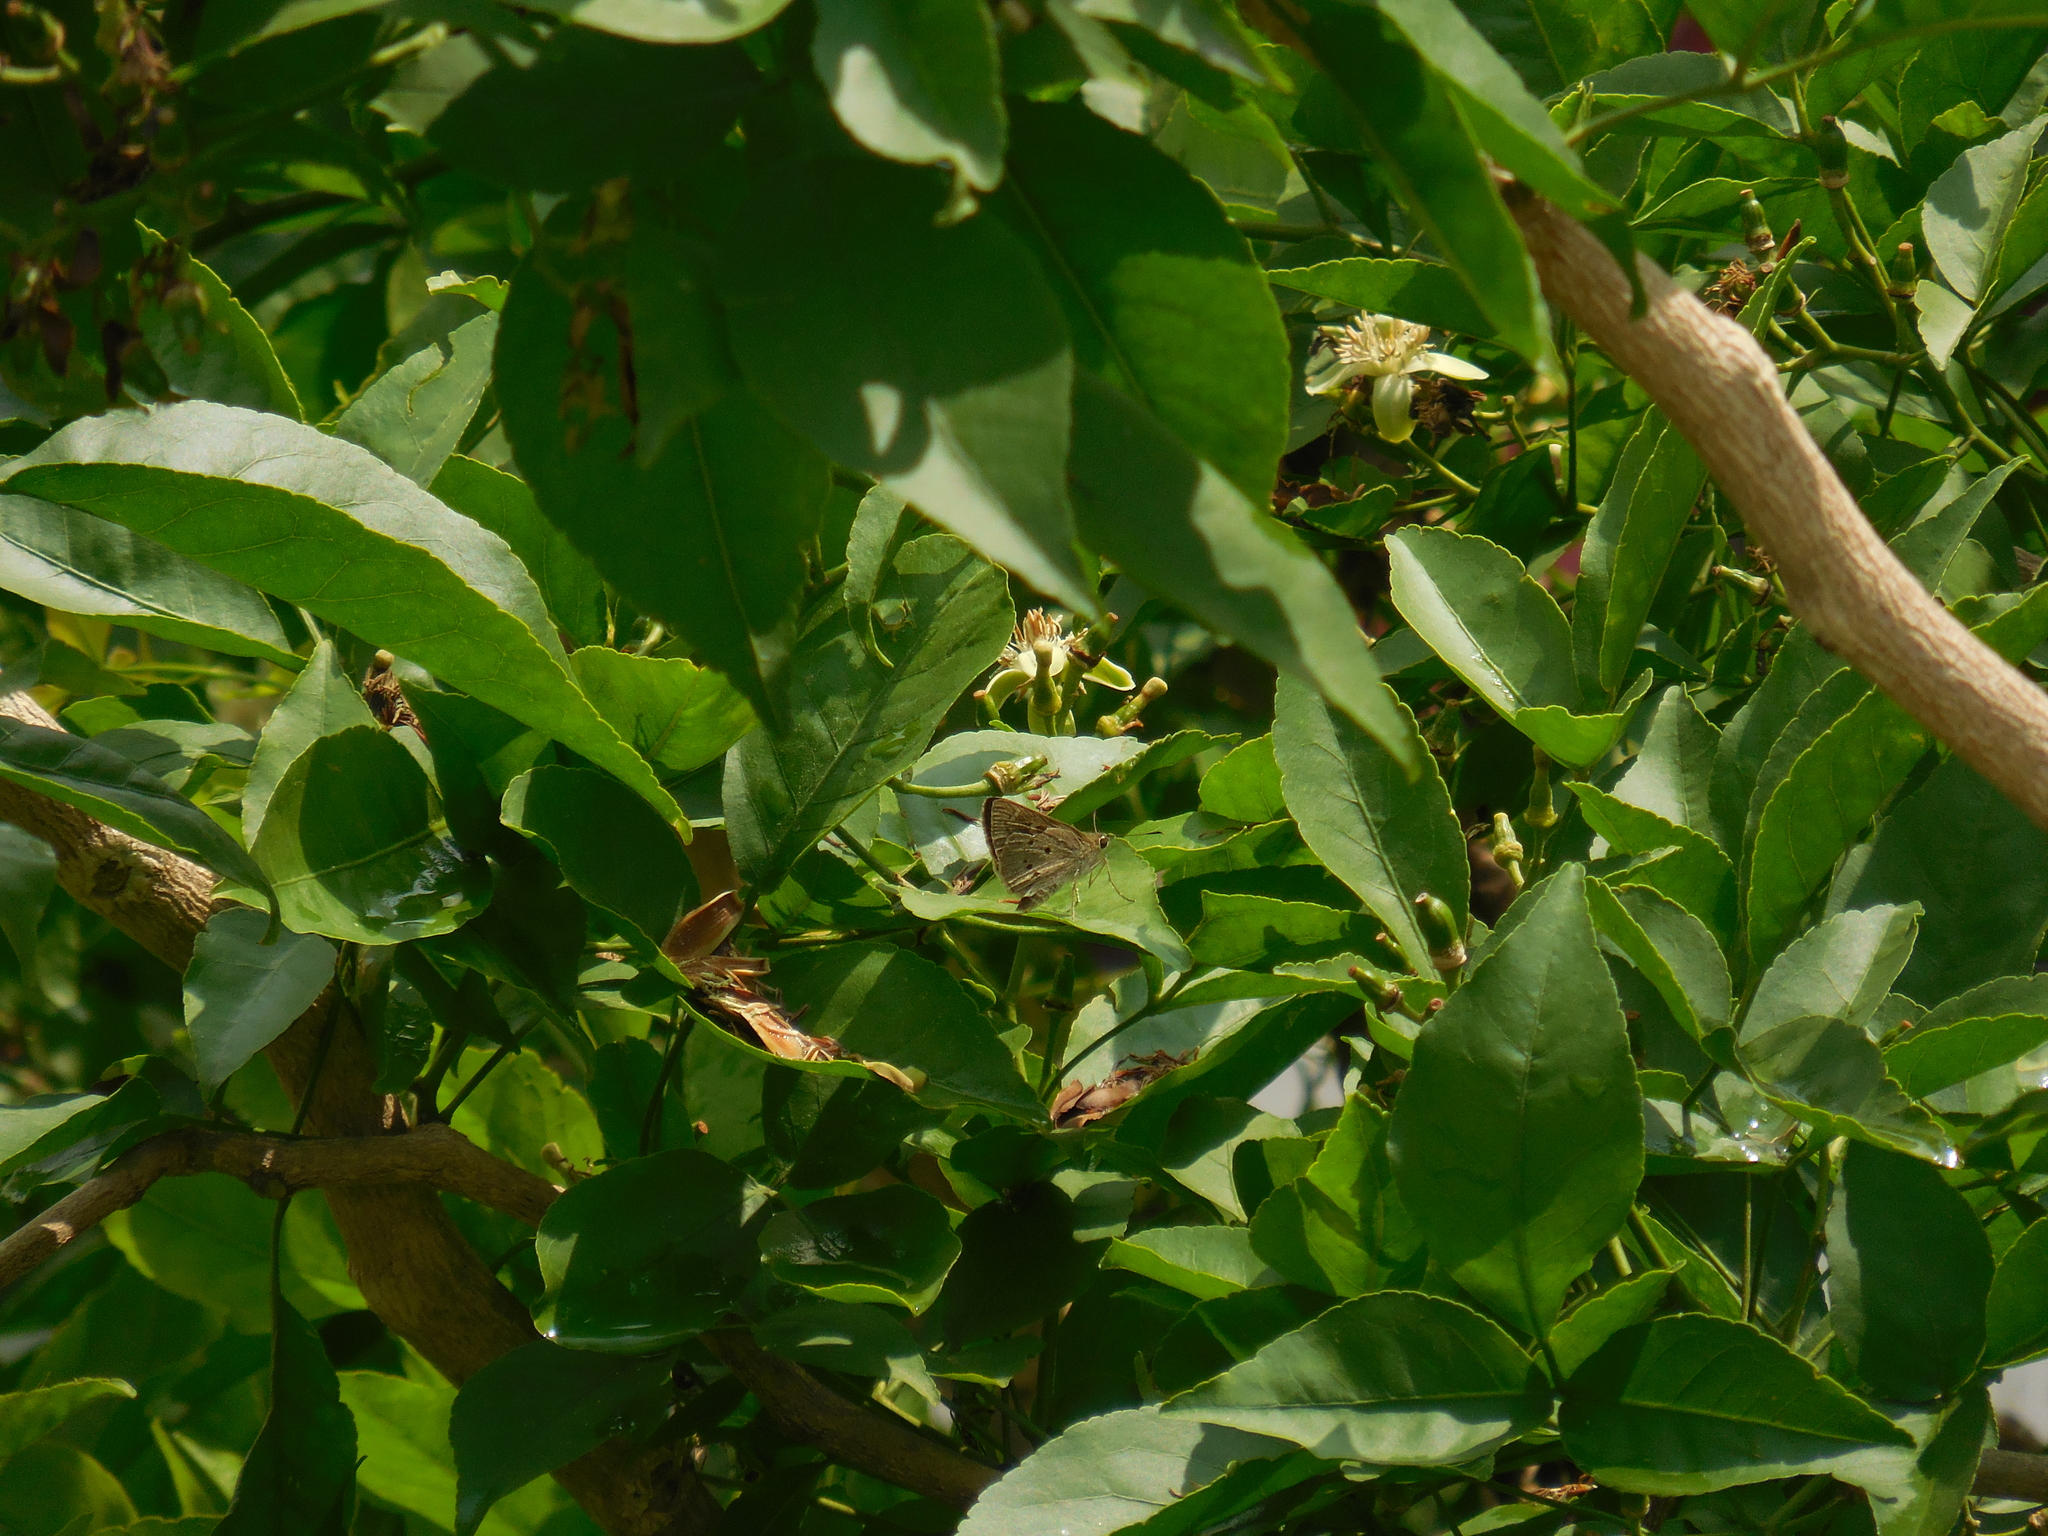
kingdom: Animalia
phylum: Arthropoda
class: Insecta
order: Lepidoptera
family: Hesperiidae
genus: Suastus
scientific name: Suastus gremius
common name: Indian palm bob
